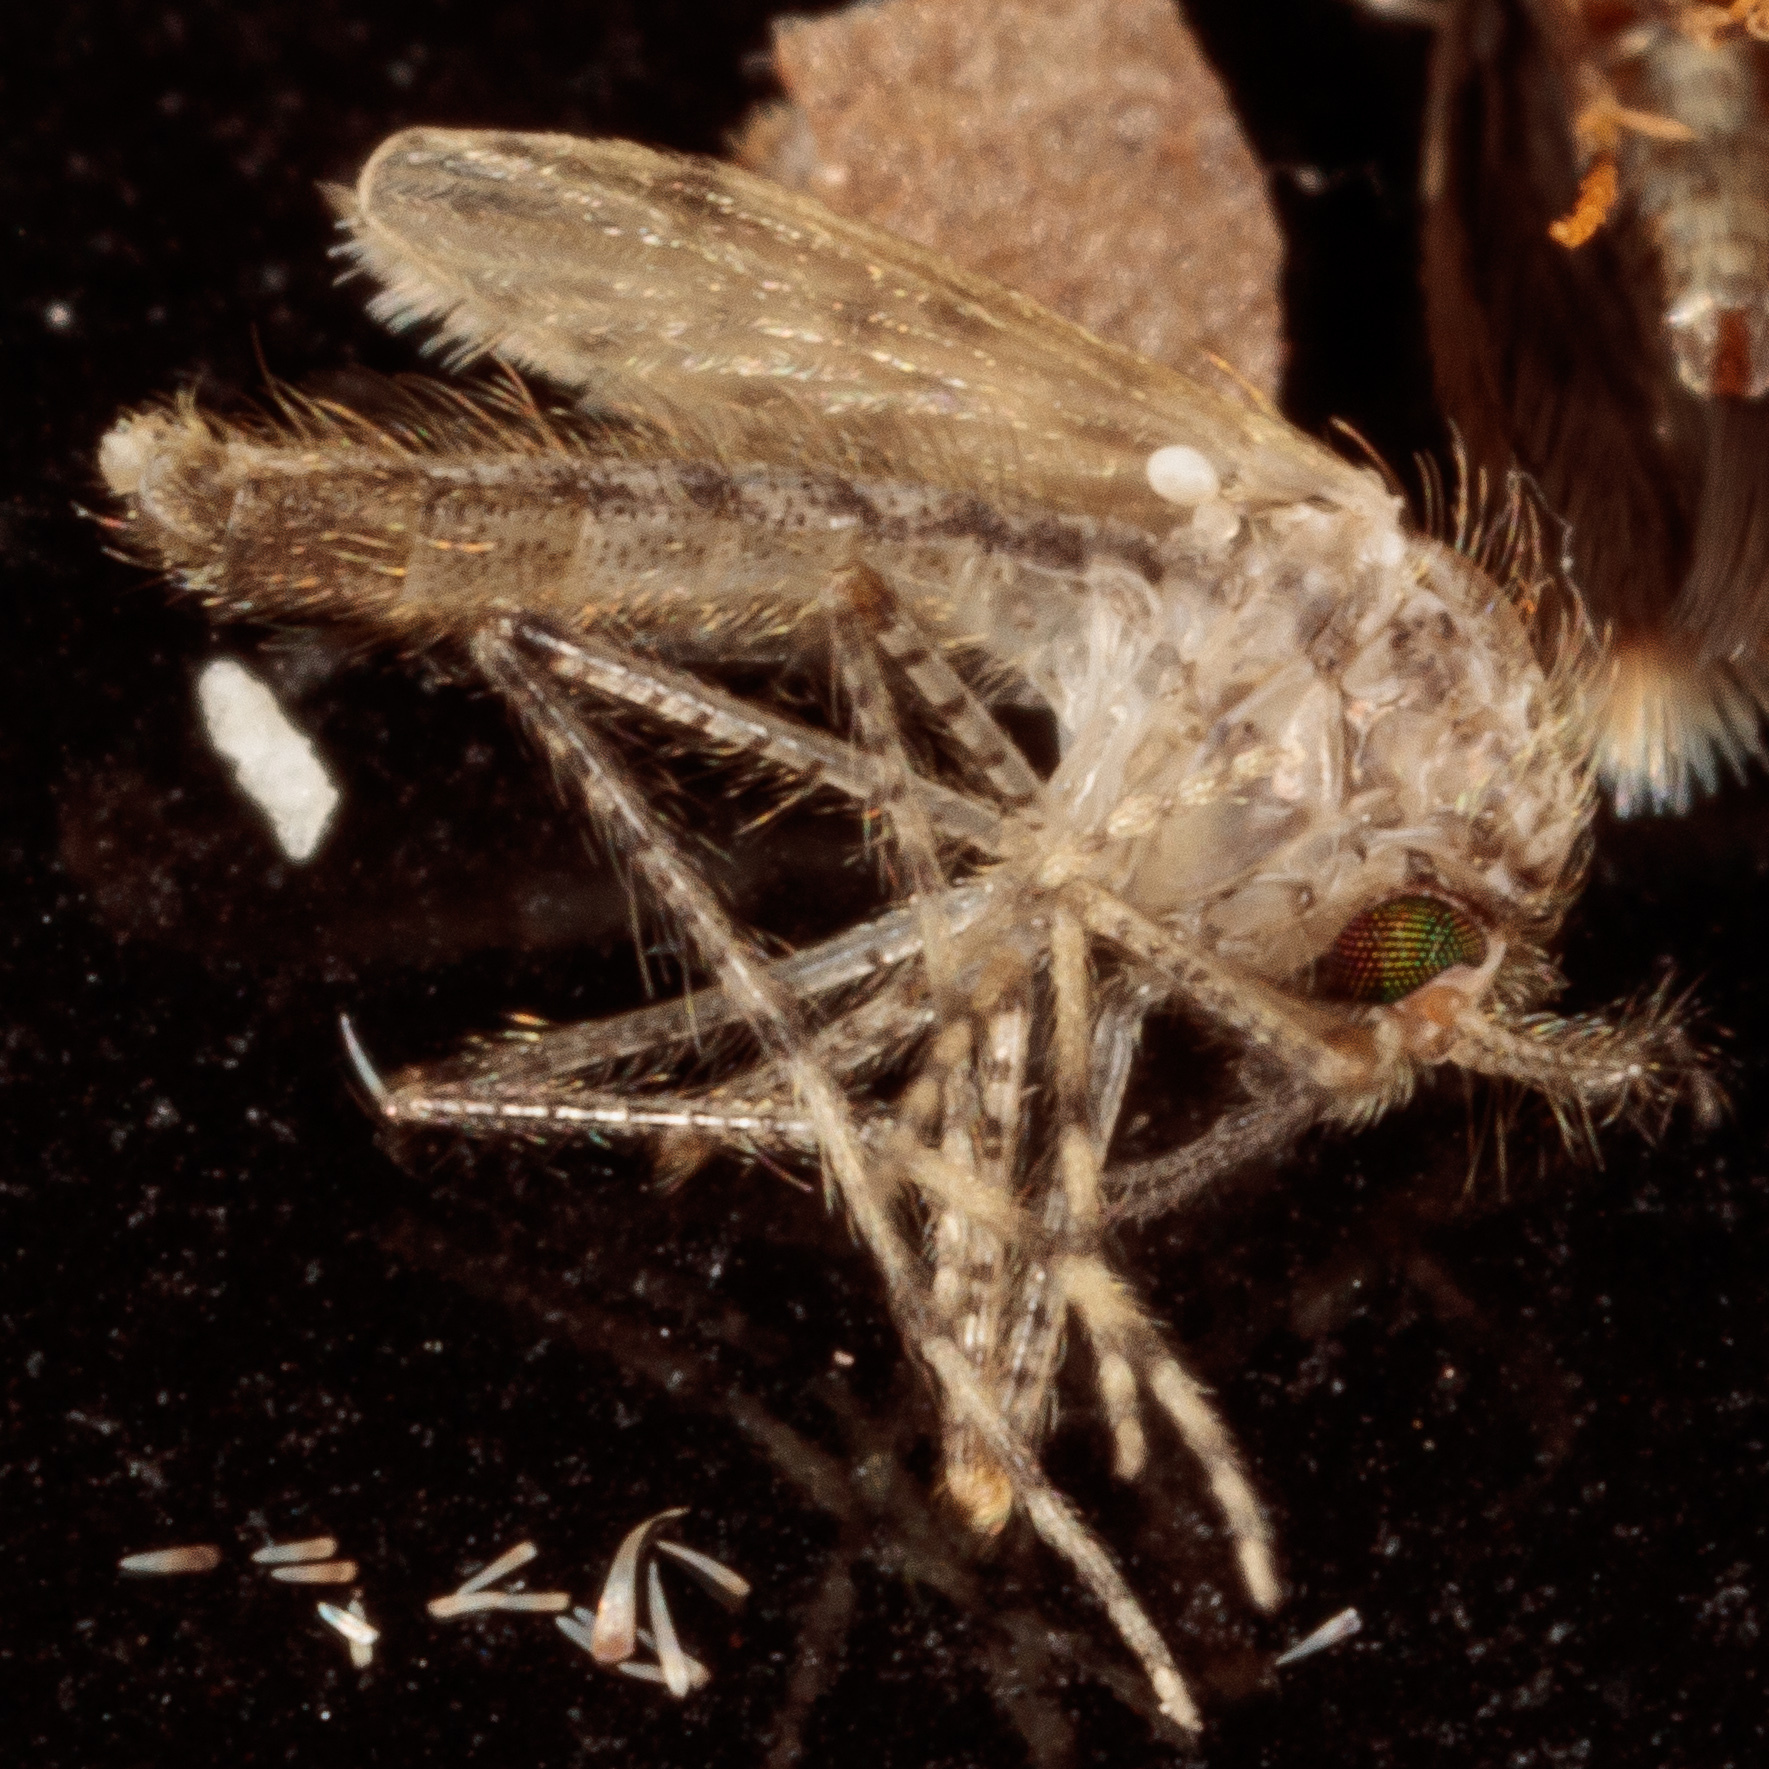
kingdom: Animalia
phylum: Arthropoda
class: Insecta
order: Diptera
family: Chaoboridae
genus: Chaoborus
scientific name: Chaoborus punctipennis
